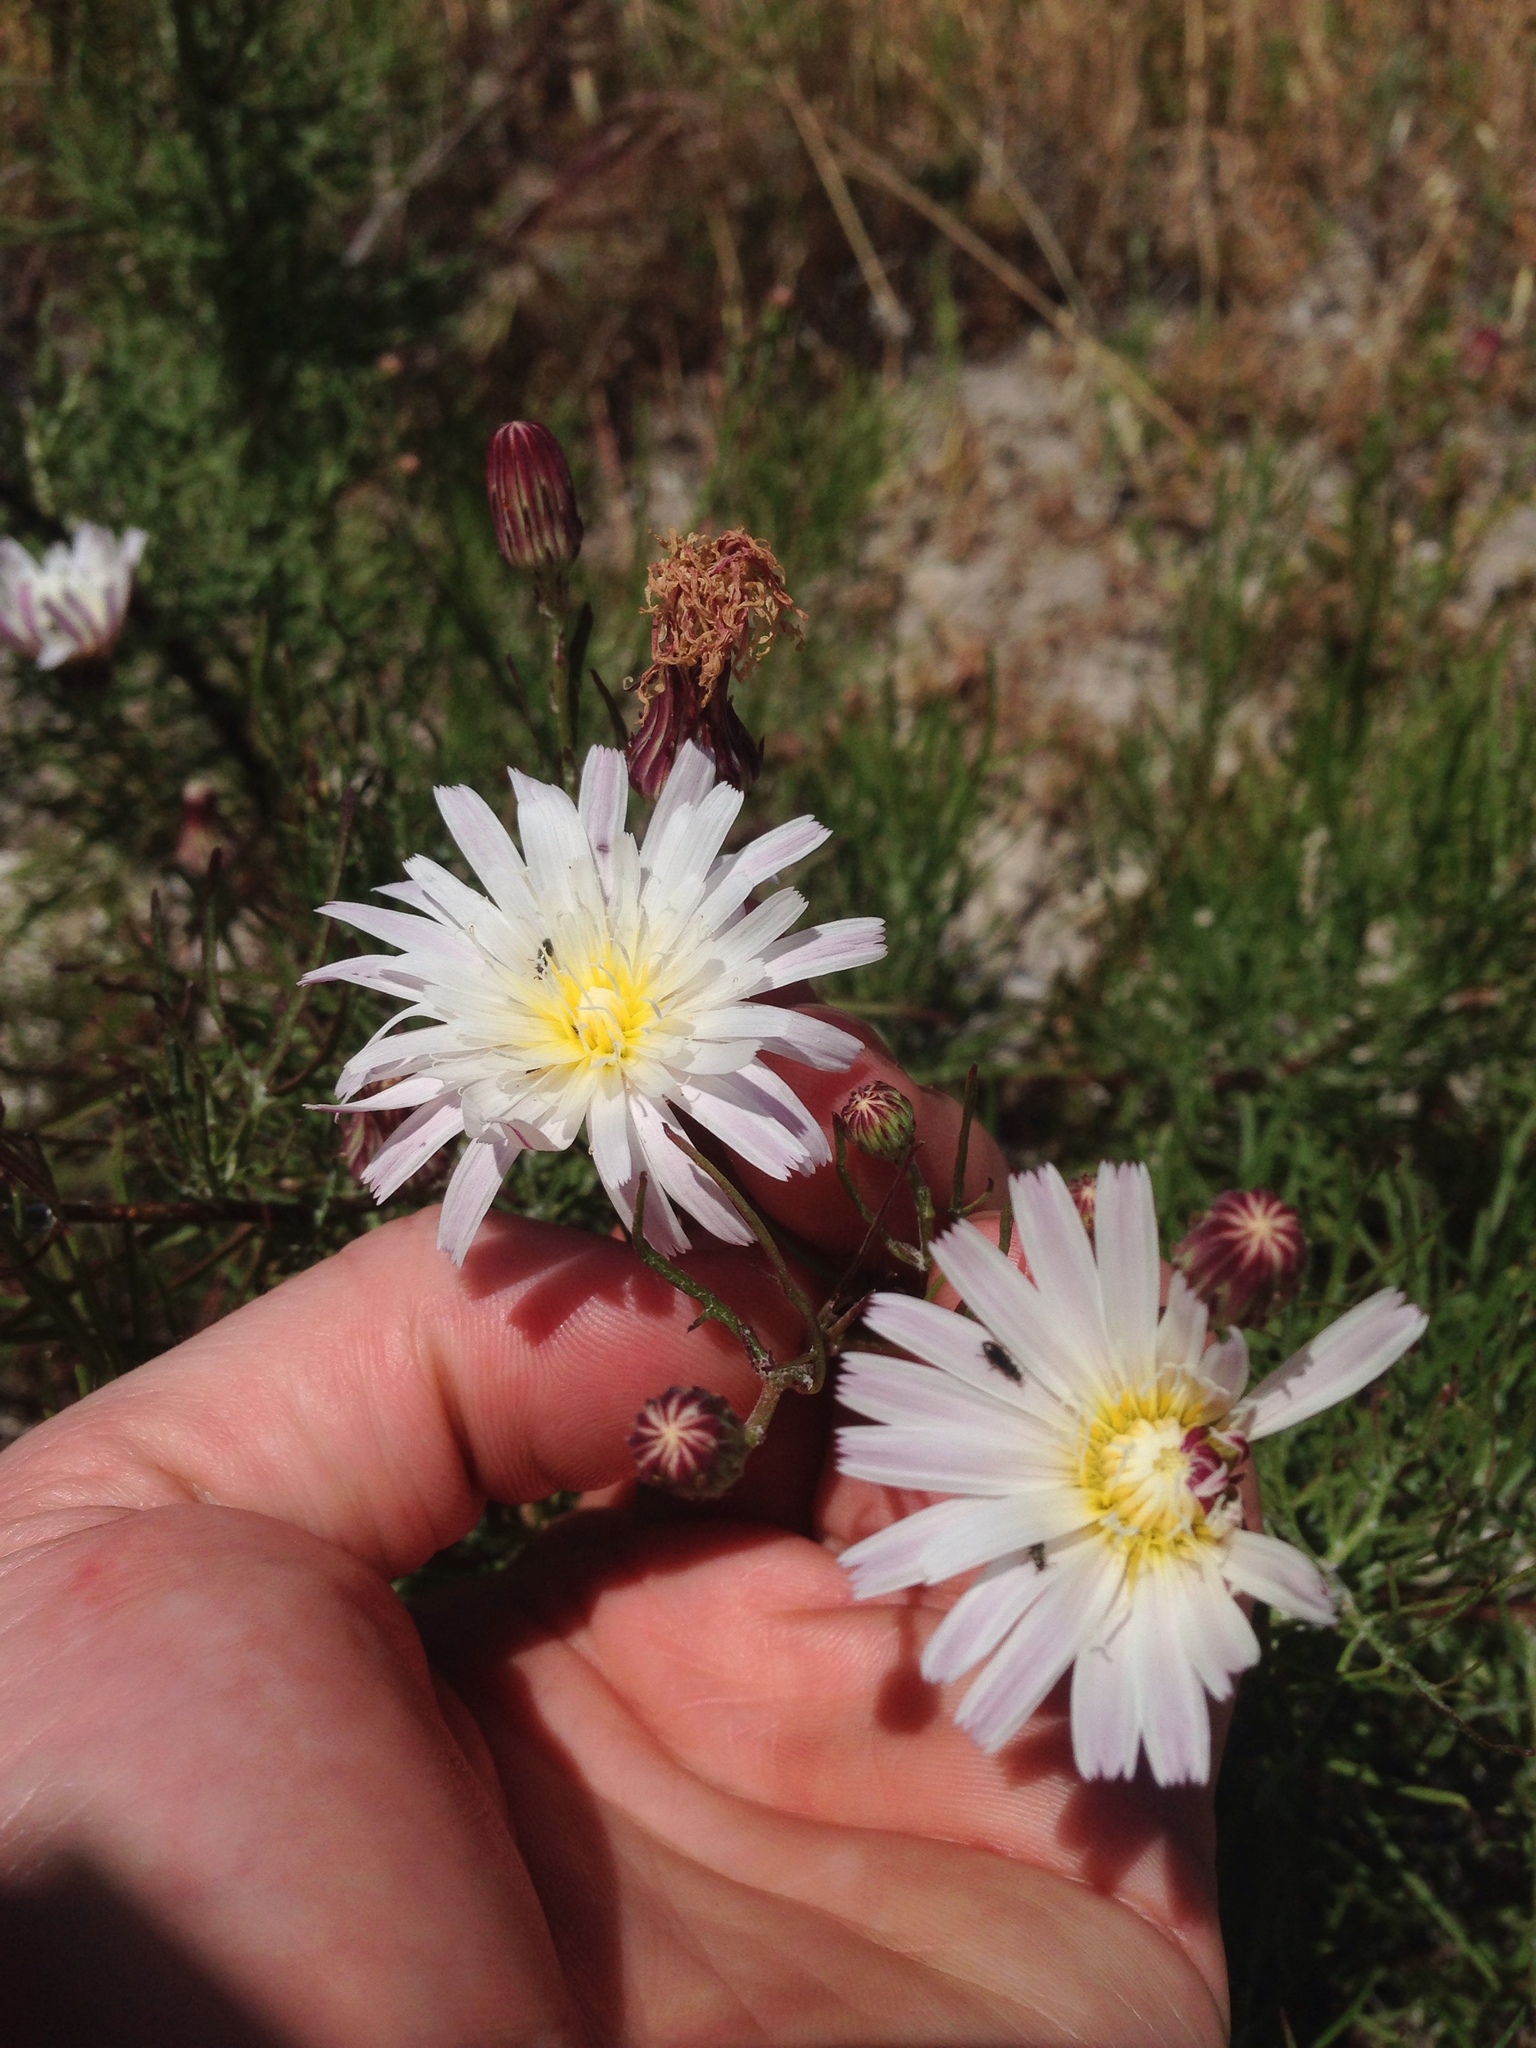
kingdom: Plantae
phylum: Tracheophyta
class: Magnoliopsida
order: Asterales
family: Asteraceae
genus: Malacothrix
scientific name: Malacothrix saxatilis
